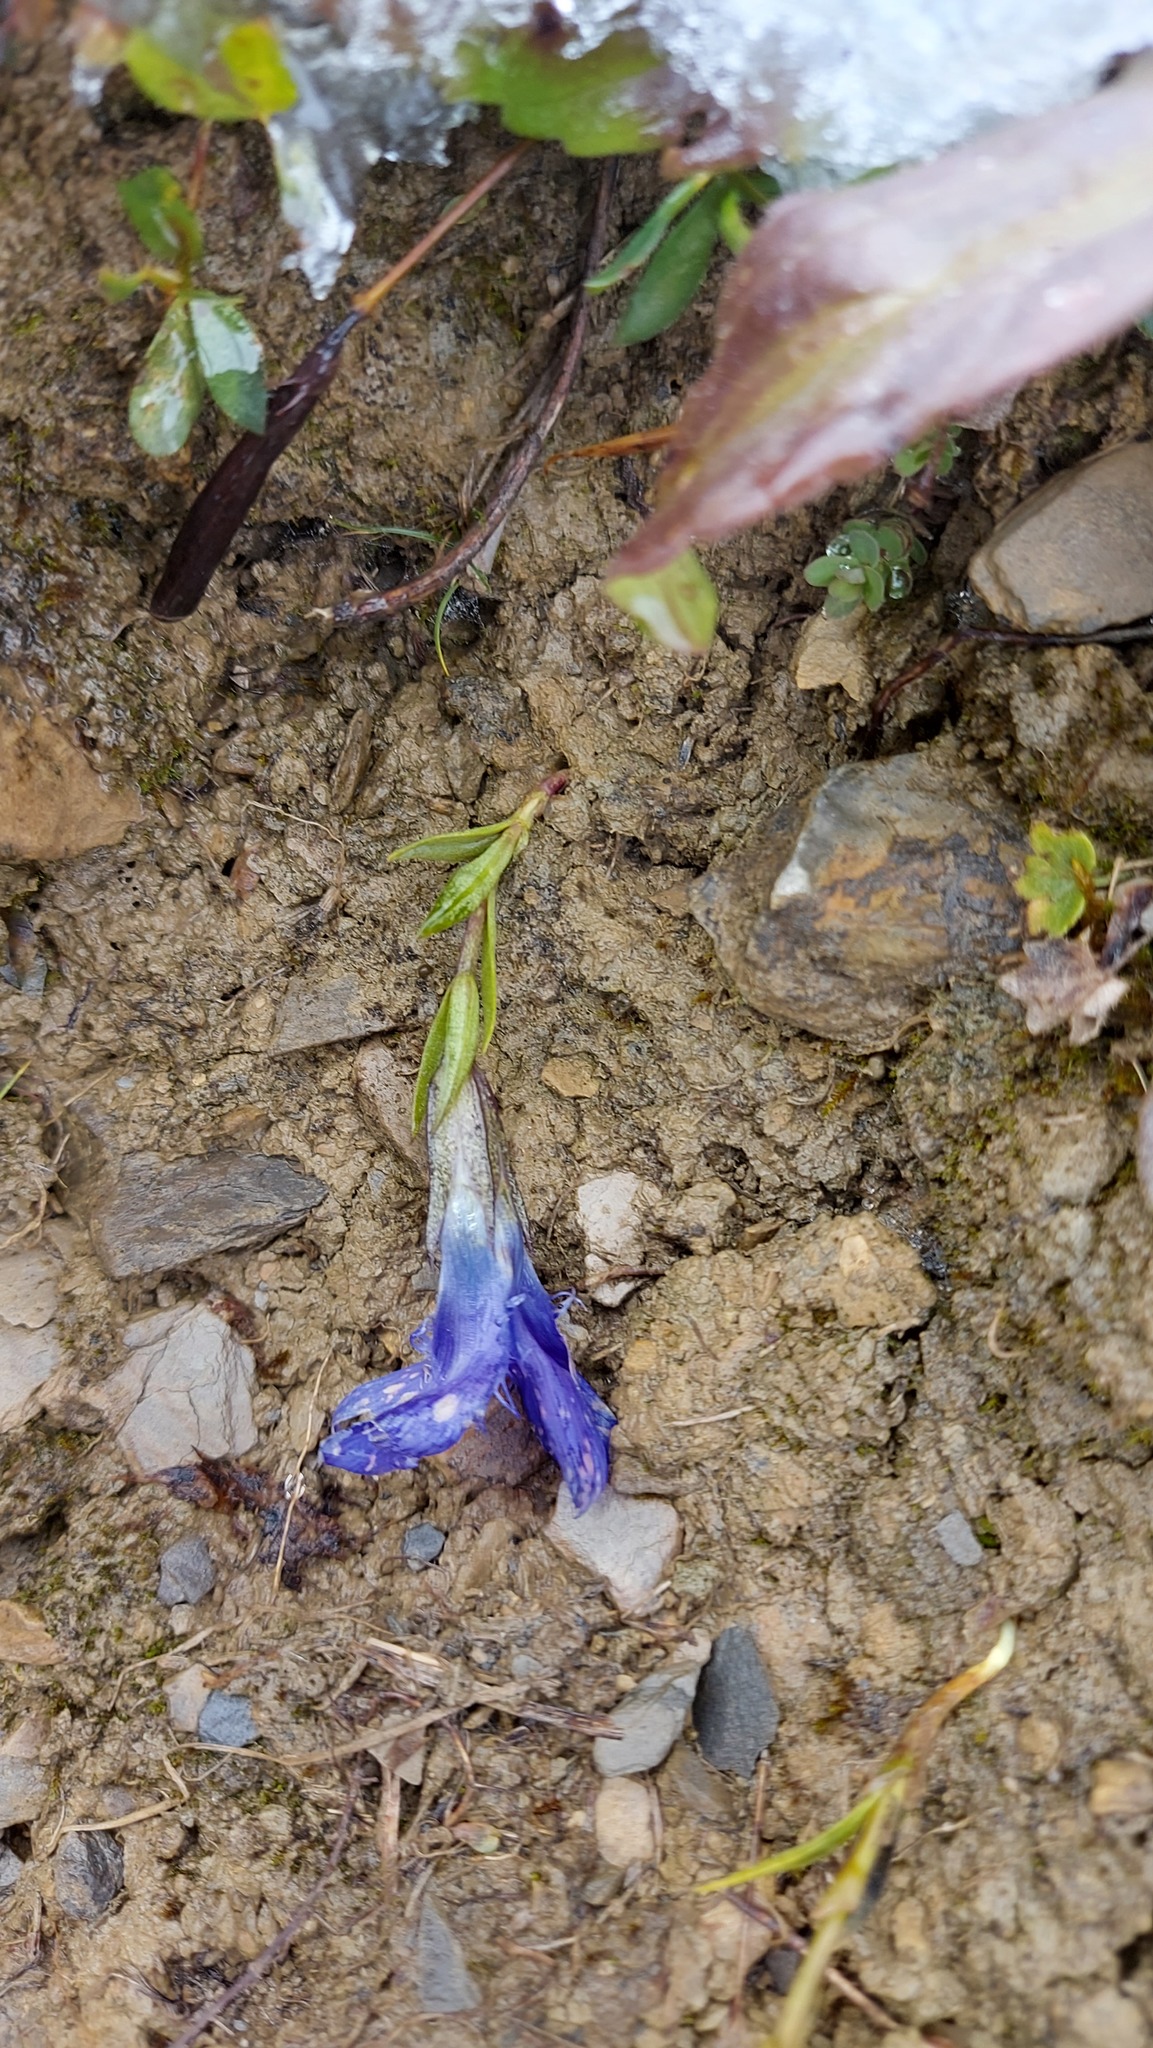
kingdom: Plantae
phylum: Tracheophyta
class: Magnoliopsida
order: Gentianales
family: Gentianaceae
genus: Gentianopsis
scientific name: Gentianopsis ciliata
